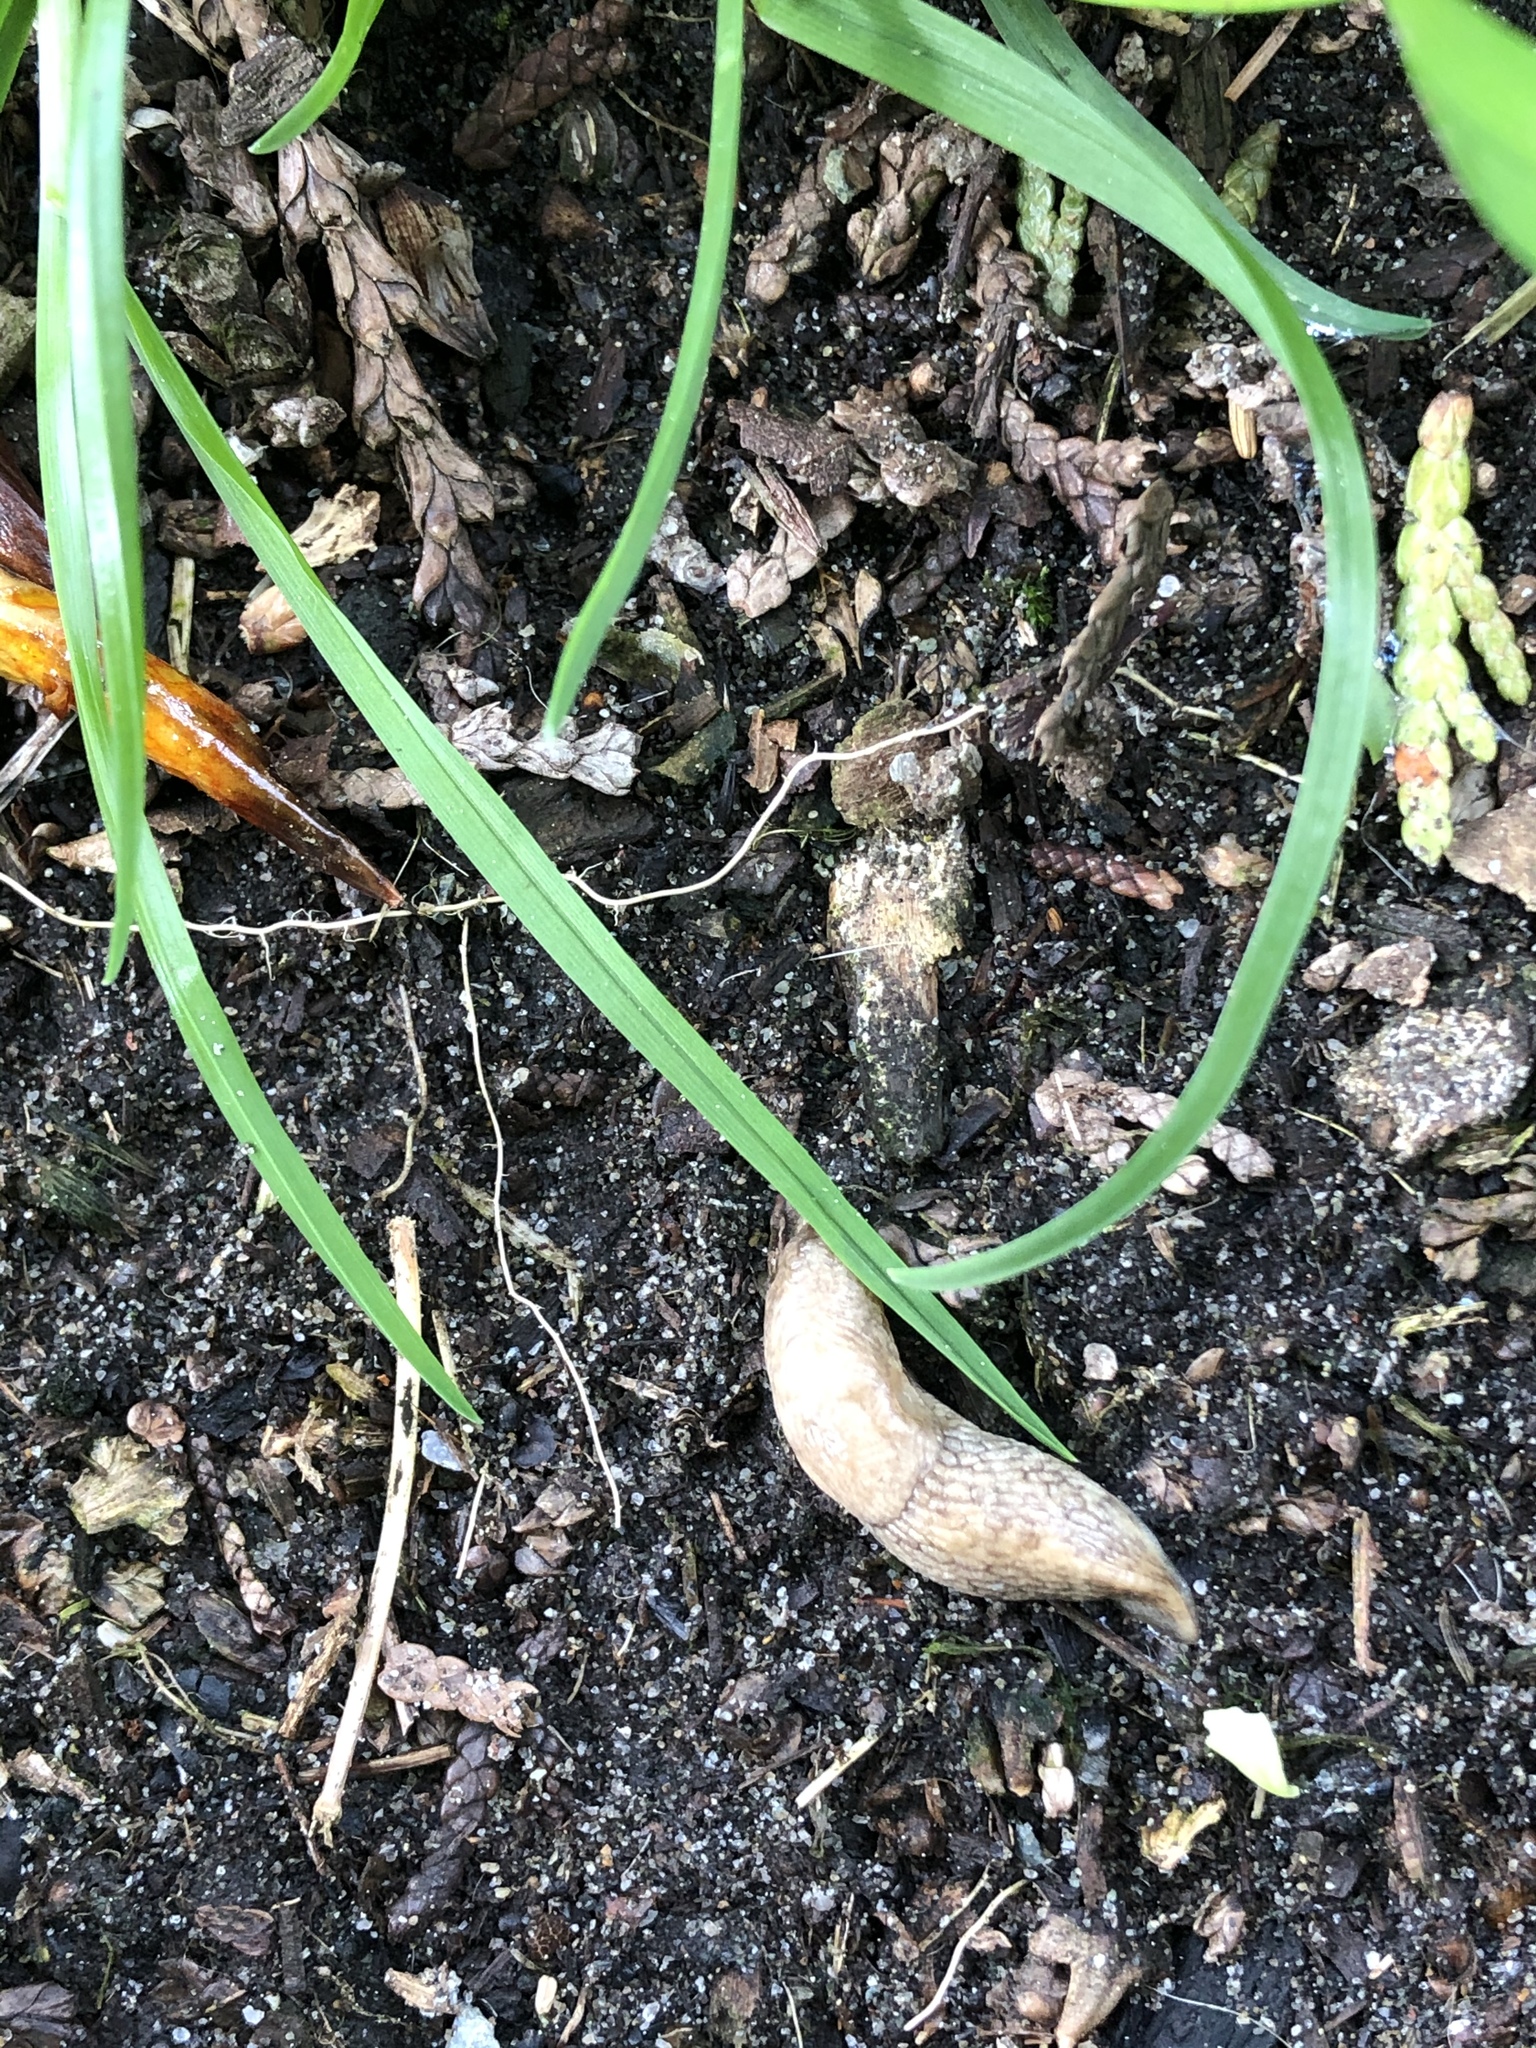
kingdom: Animalia
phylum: Mollusca
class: Gastropoda
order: Stylommatophora
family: Agriolimacidae
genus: Deroceras
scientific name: Deroceras reticulatum
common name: Gray field slug
